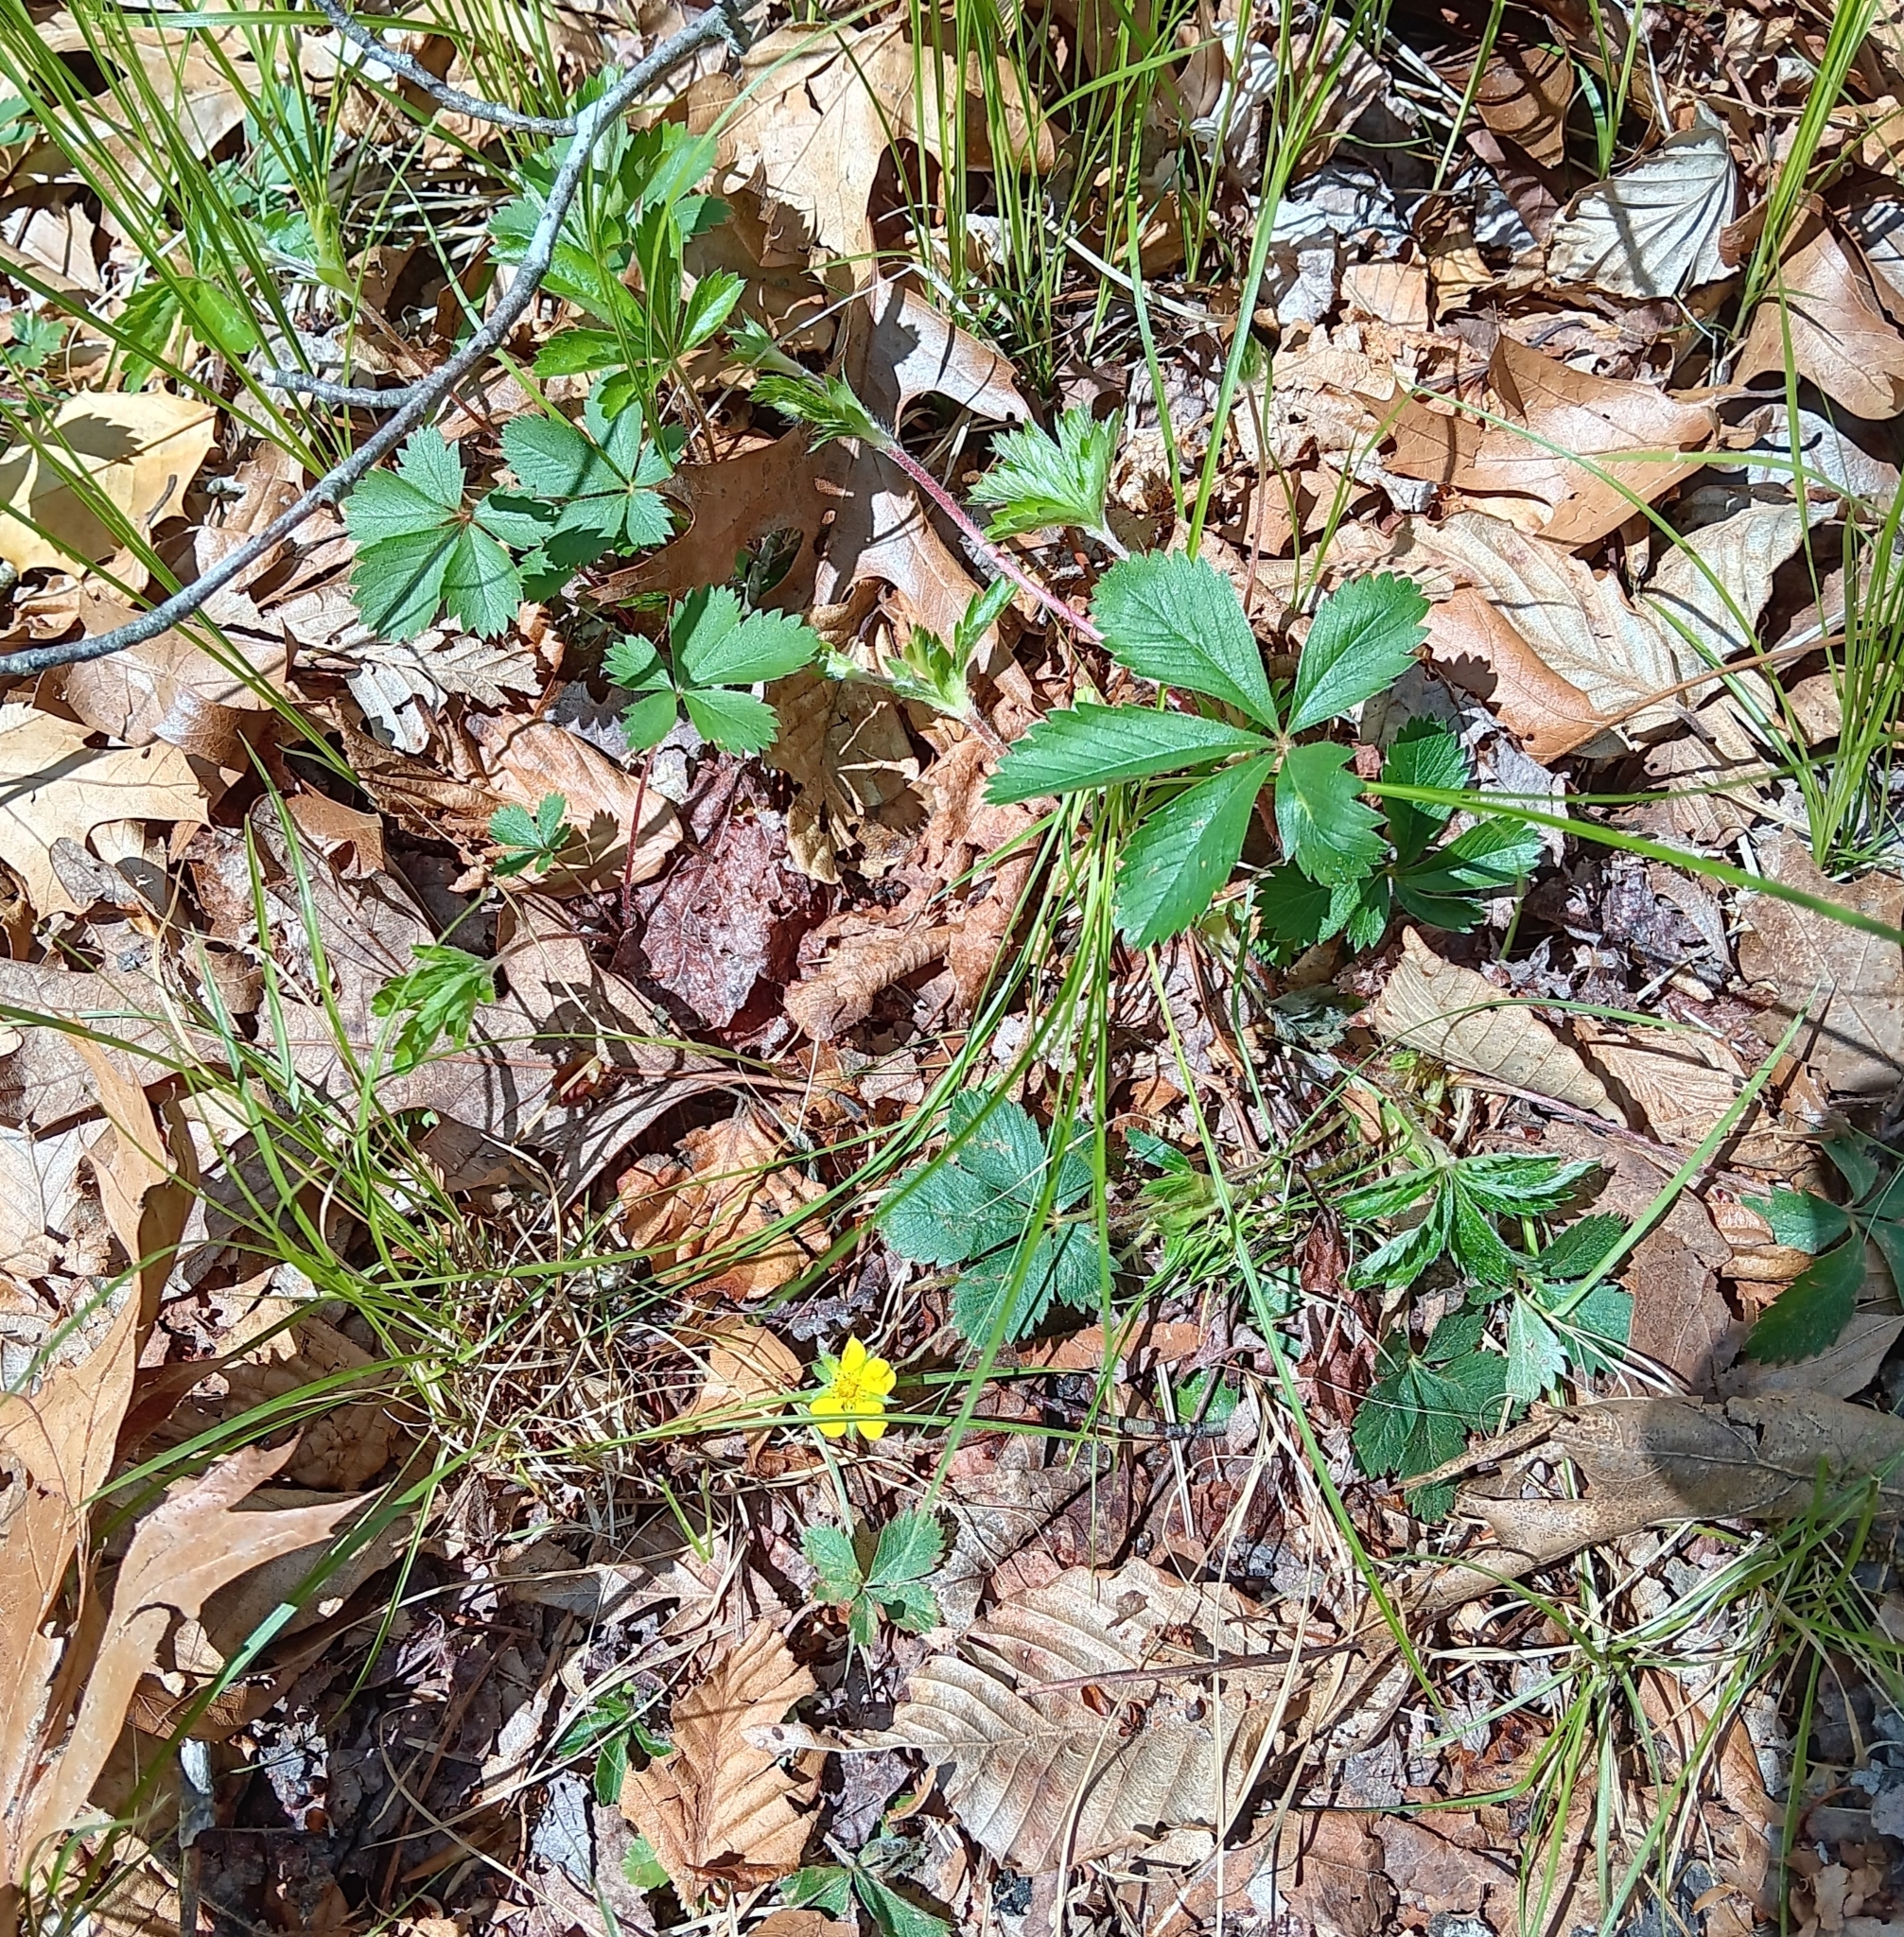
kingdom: Plantae
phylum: Tracheophyta
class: Magnoliopsida
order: Rosales
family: Rosaceae
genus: Potentilla
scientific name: Potentilla simplex
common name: Old field cinquefoil
